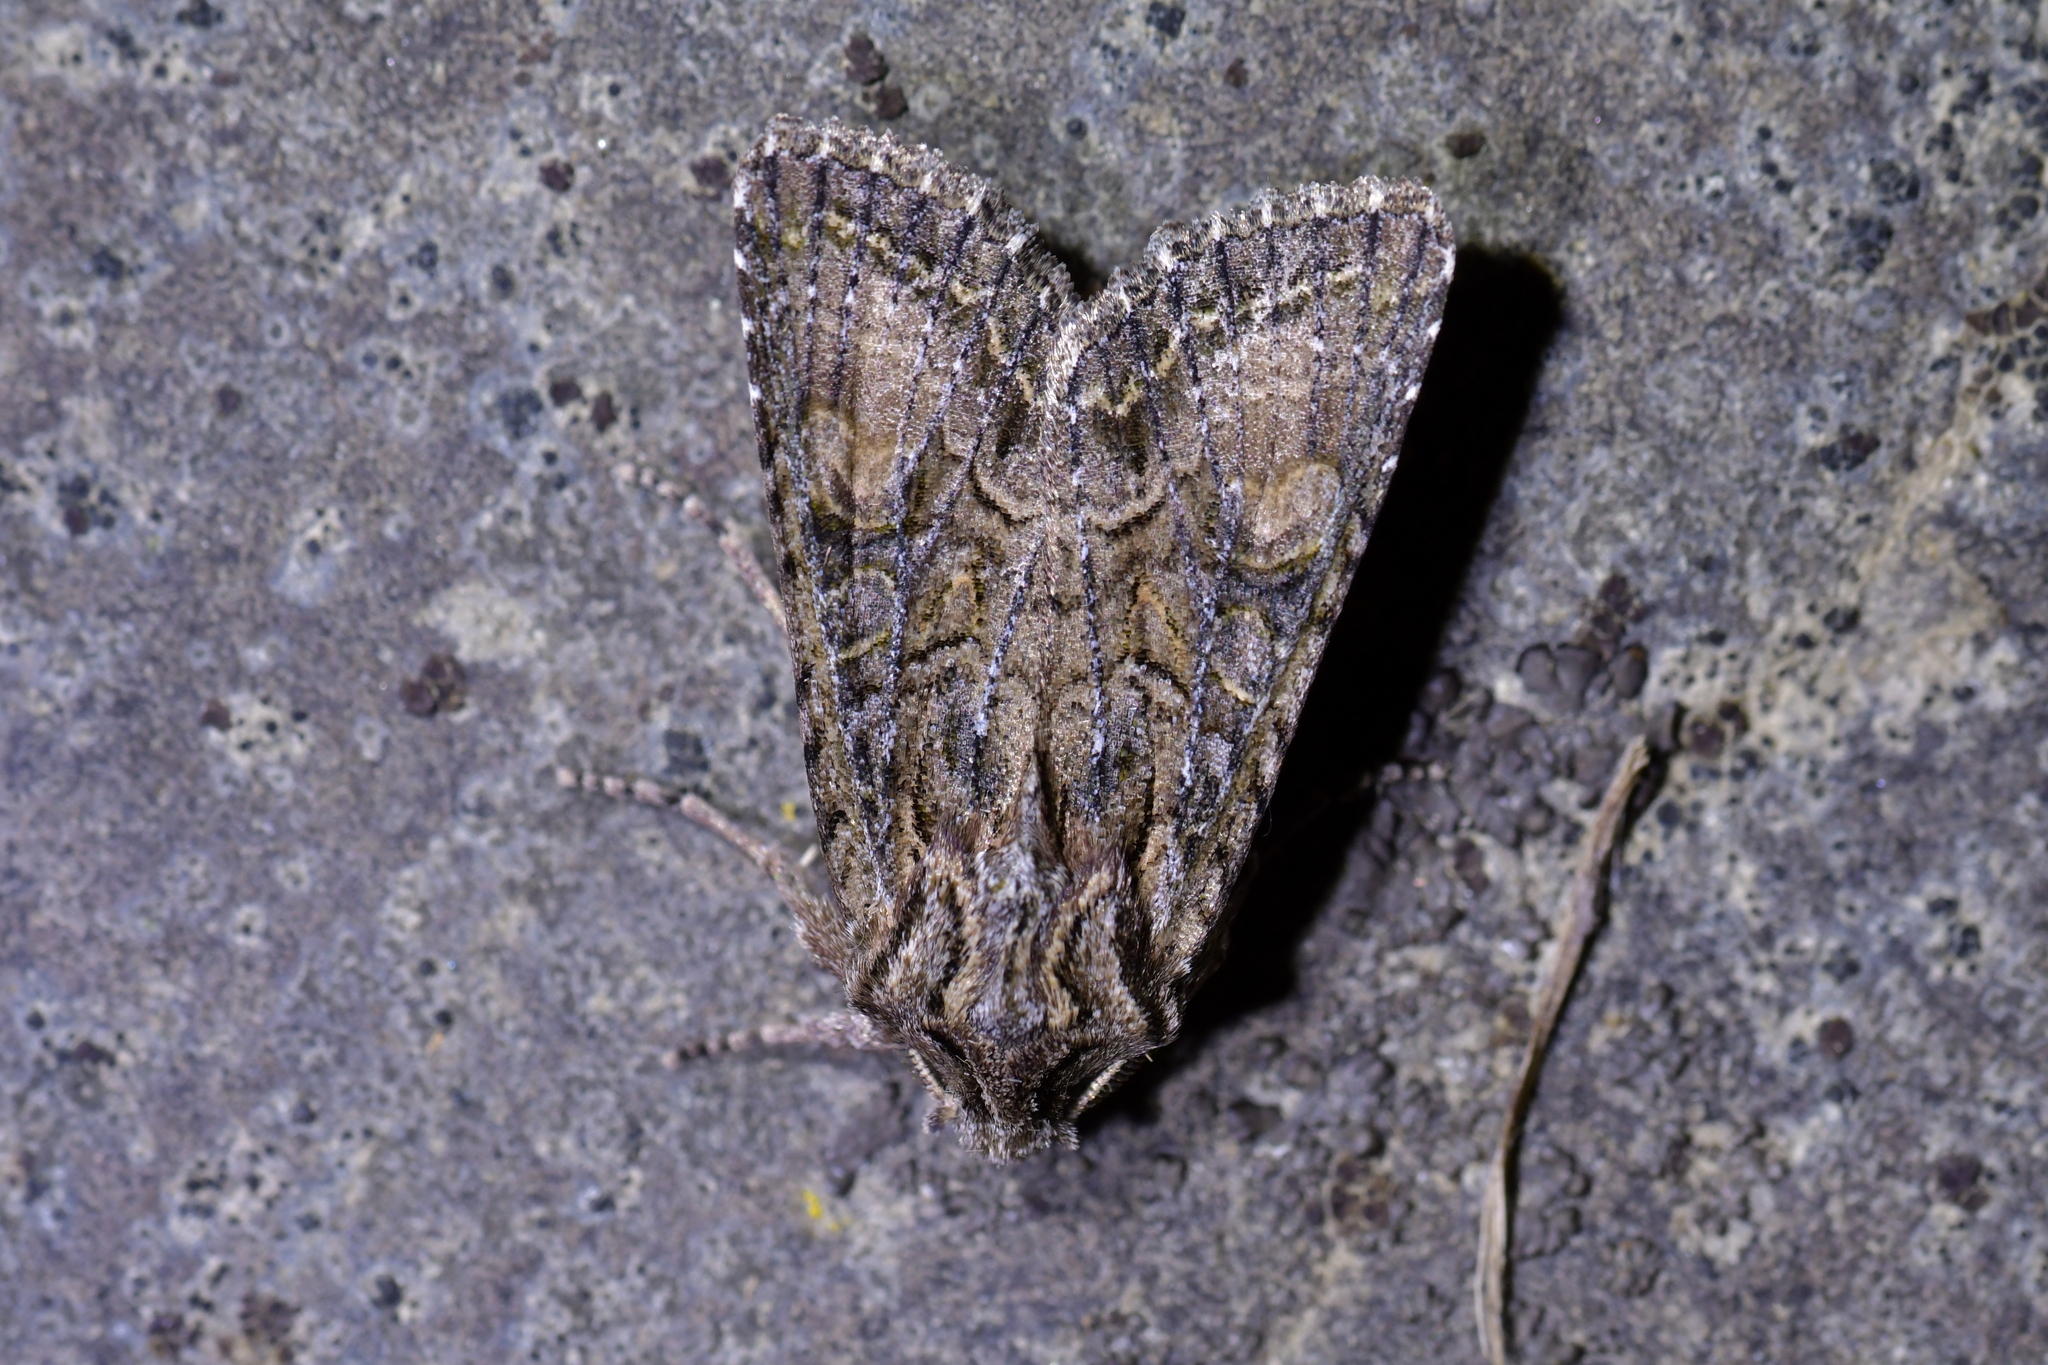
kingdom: Animalia
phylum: Arthropoda
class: Insecta
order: Lepidoptera
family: Noctuidae
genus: Ichneutica
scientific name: Ichneutica mutans
